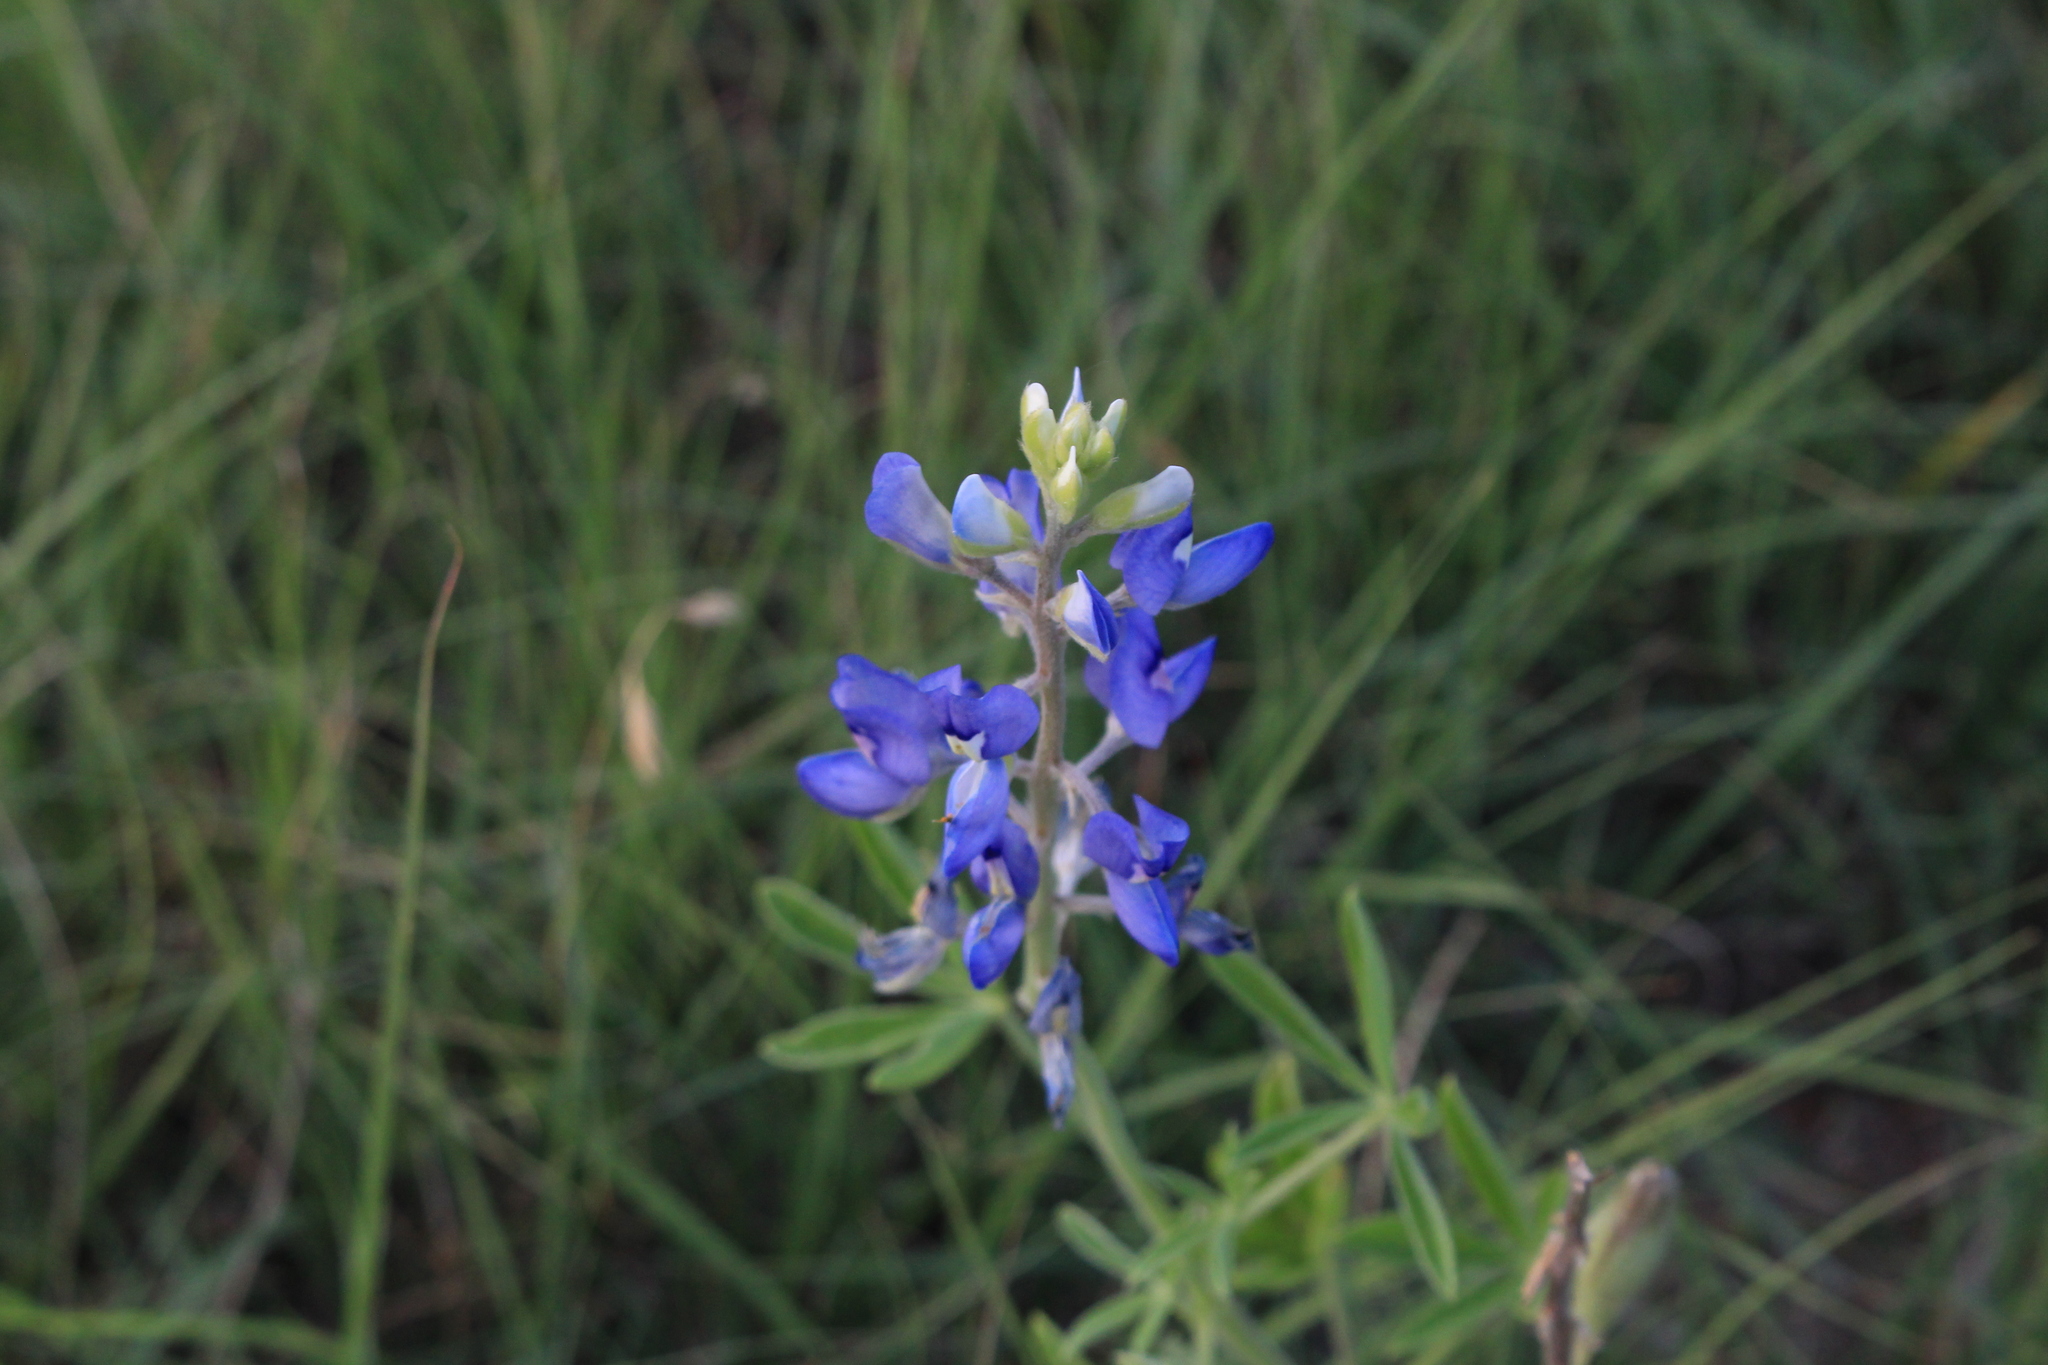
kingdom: Plantae
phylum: Tracheophyta
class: Magnoliopsida
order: Fabales
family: Fabaceae
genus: Lupinus
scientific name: Lupinus texensis
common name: Texas bluebonnet
